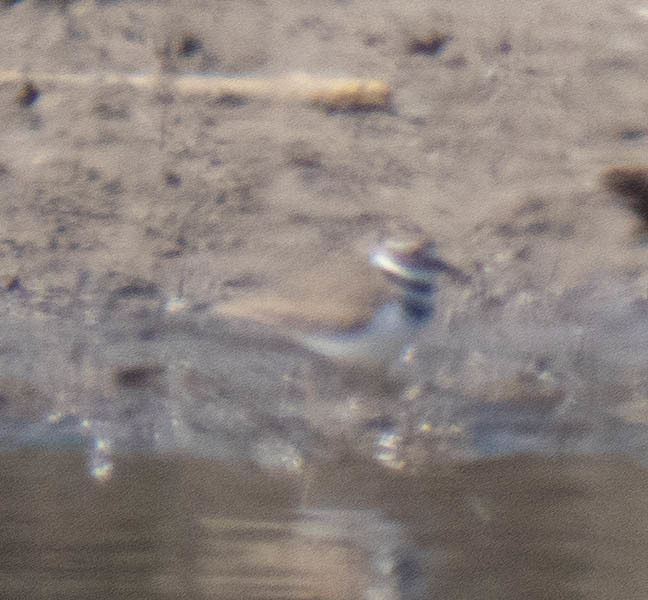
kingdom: Animalia
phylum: Chordata
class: Aves
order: Charadriiformes
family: Charadriidae
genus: Charadrius
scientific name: Charadrius vociferus
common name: Killdeer
